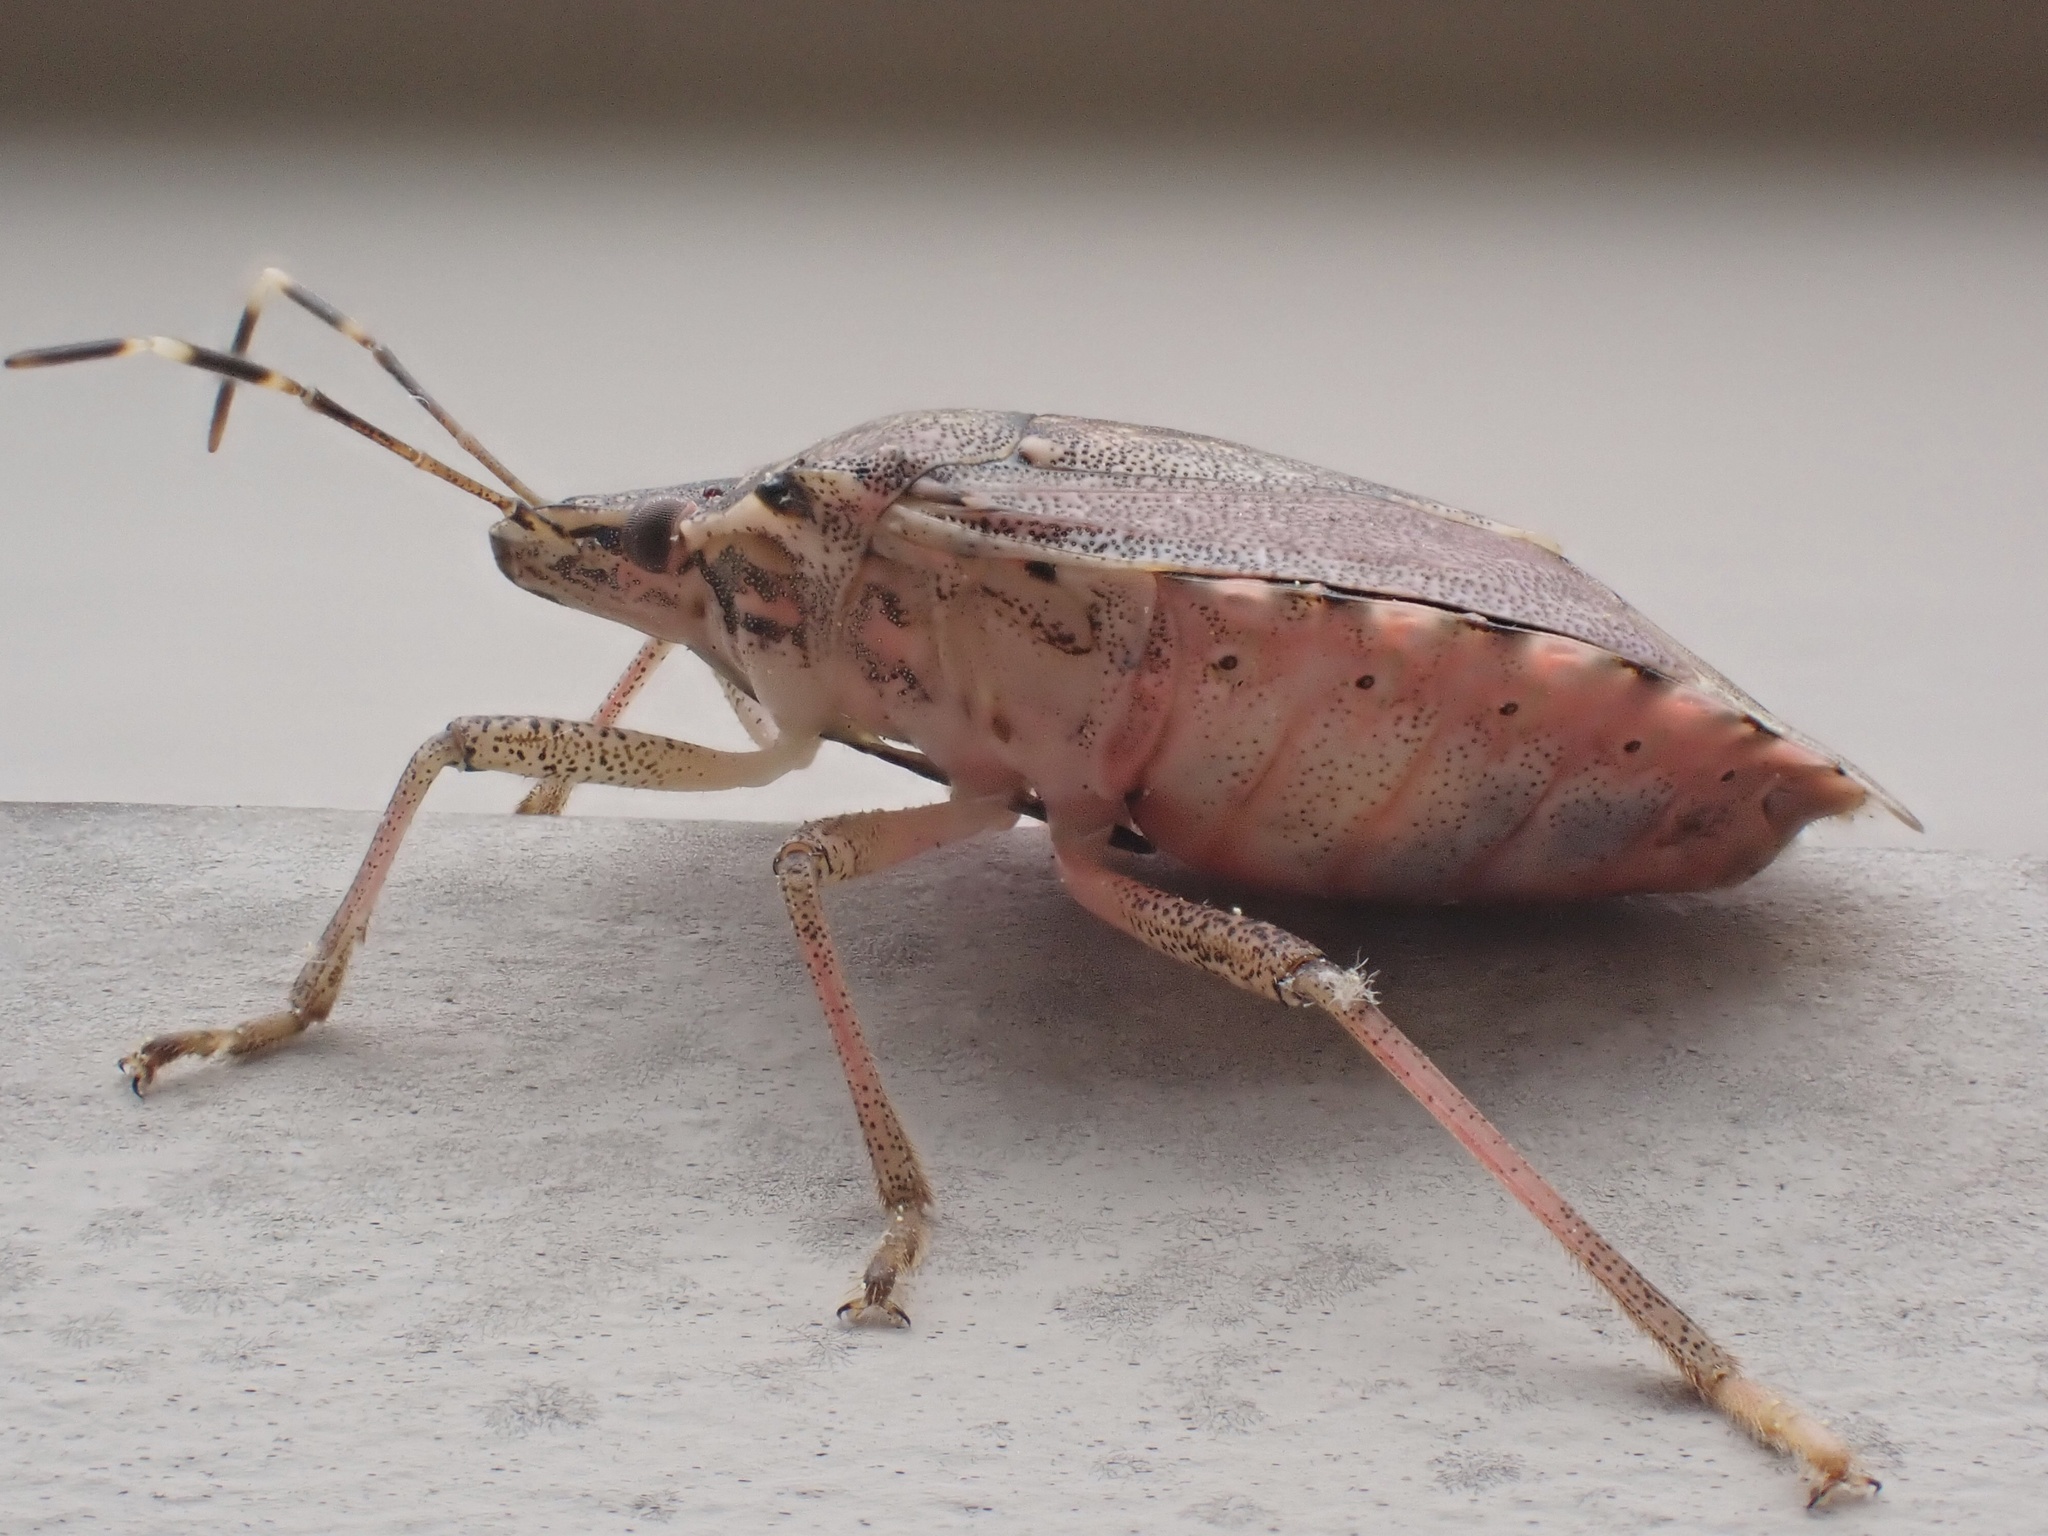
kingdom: Animalia
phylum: Arthropoda
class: Insecta
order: Hemiptera
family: Pentatomidae
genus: Halyomorpha
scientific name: Halyomorpha halys
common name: Brown marmorated stink bug
